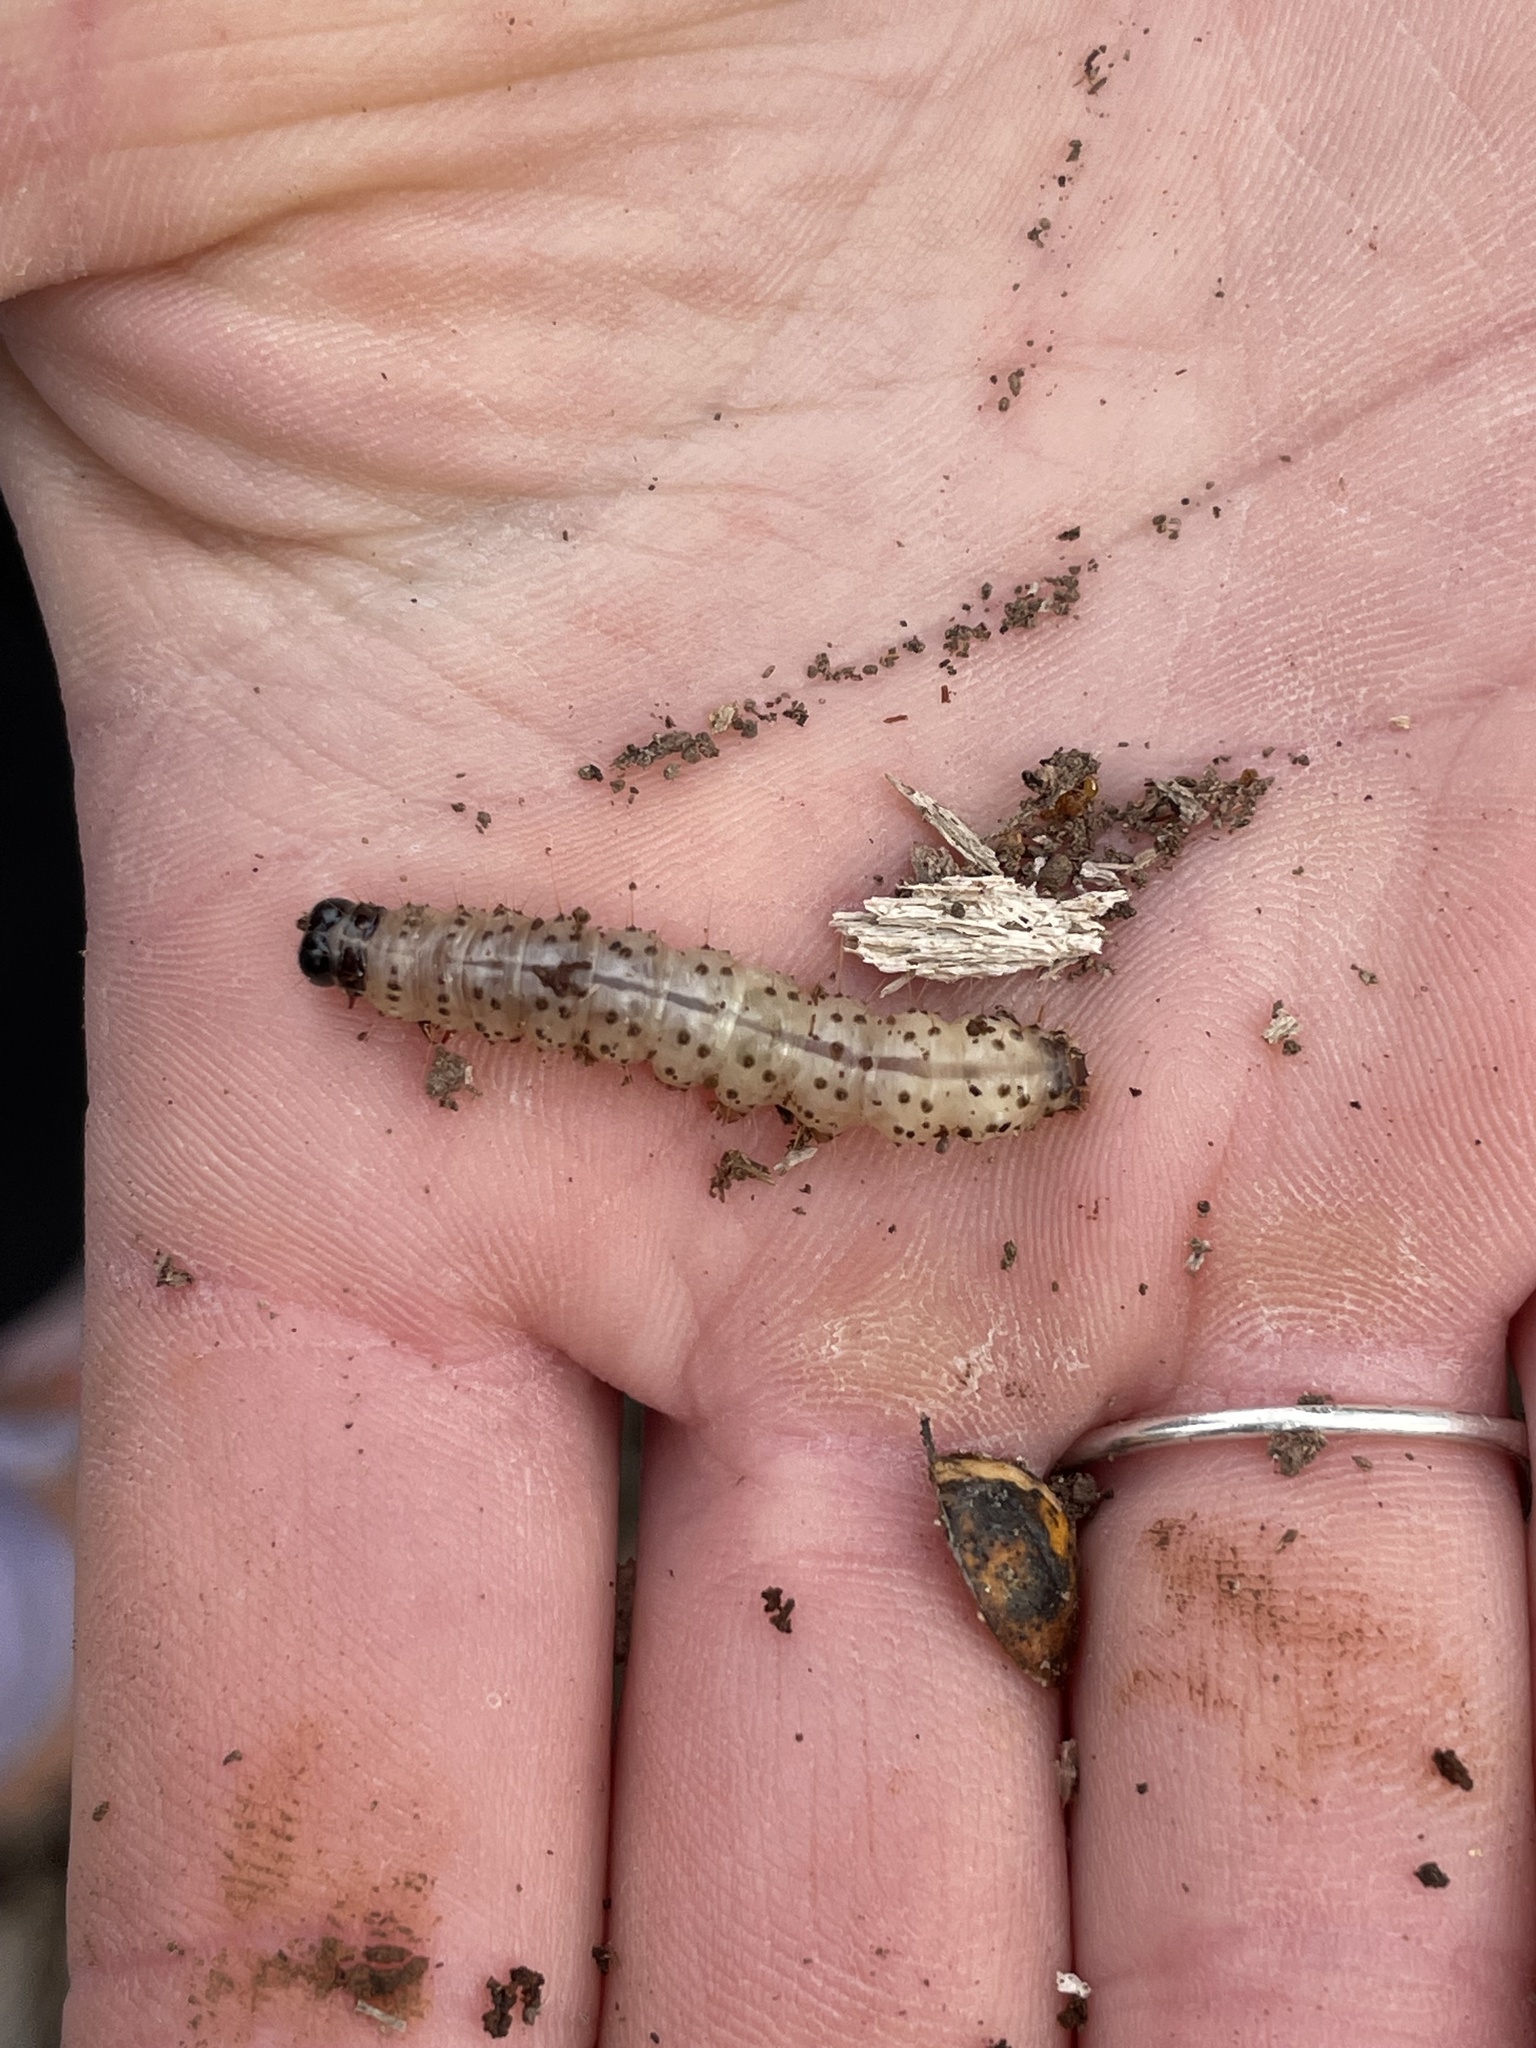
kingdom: Animalia
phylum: Arthropoda
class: Insecta
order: Lepidoptera
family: Erebidae
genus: Scolecocampa
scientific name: Scolecocampa liburna
